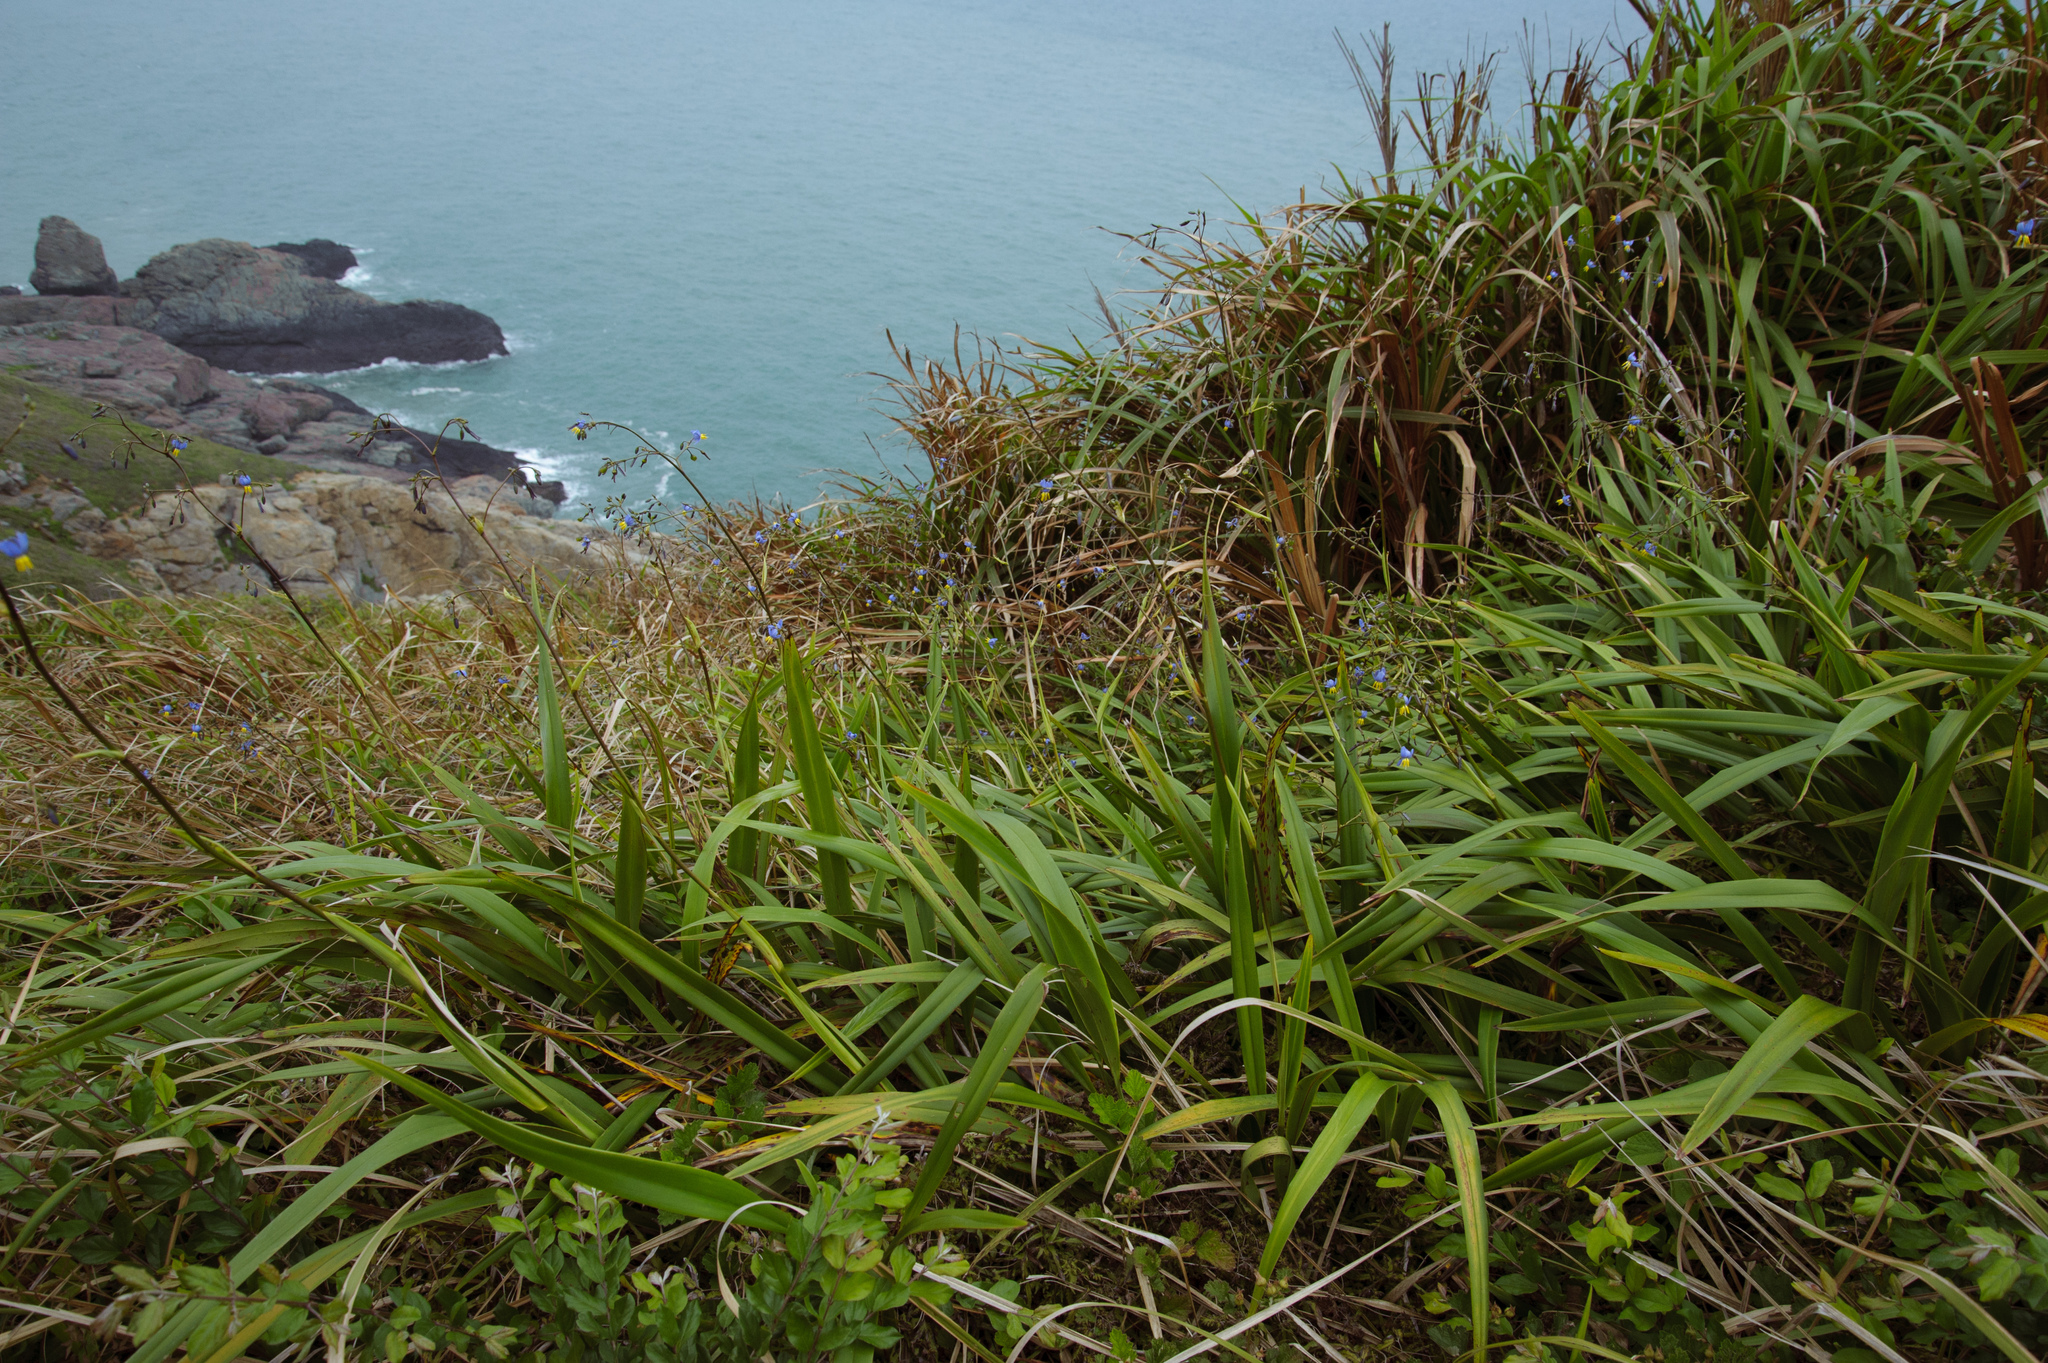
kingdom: Plantae
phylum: Tracheophyta
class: Liliopsida
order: Asparagales
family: Asphodelaceae
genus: Dianella
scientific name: Dianella ensifolia
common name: New zealand lilyplant
